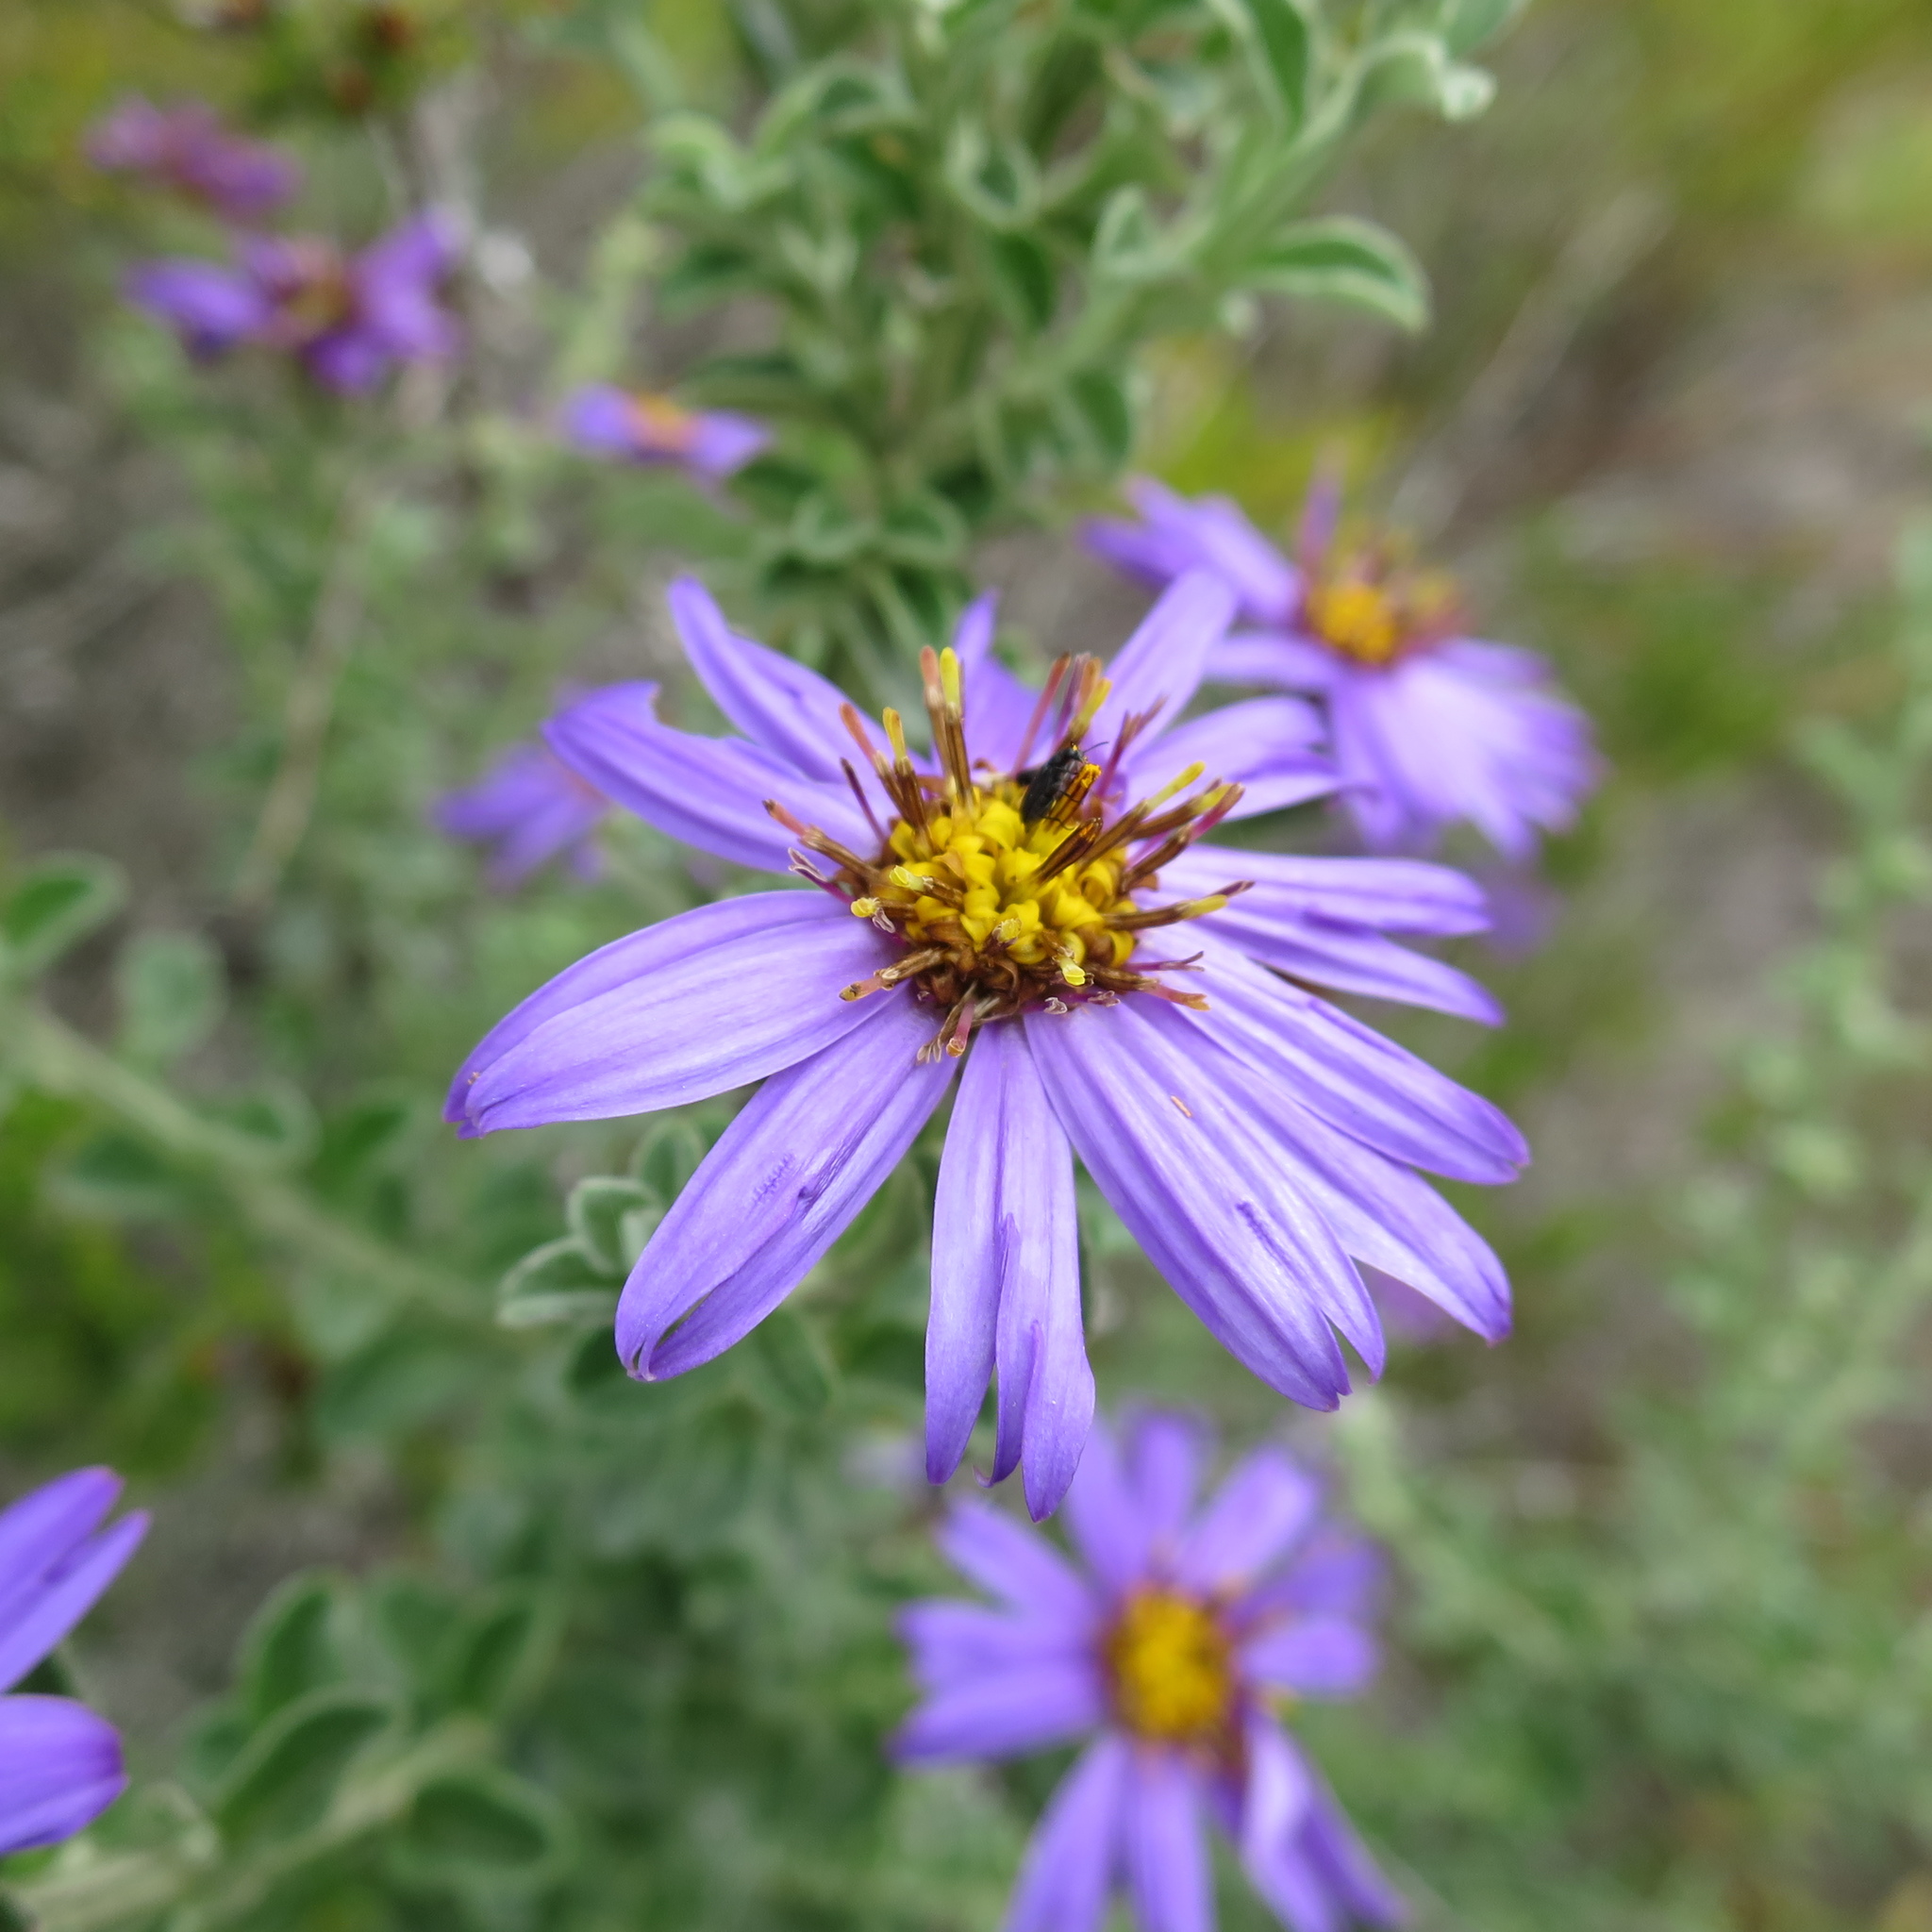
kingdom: Plantae
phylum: Tracheophyta
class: Magnoliopsida
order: Asterales
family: Asteraceae
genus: Printzia
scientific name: Printzia polifolia
